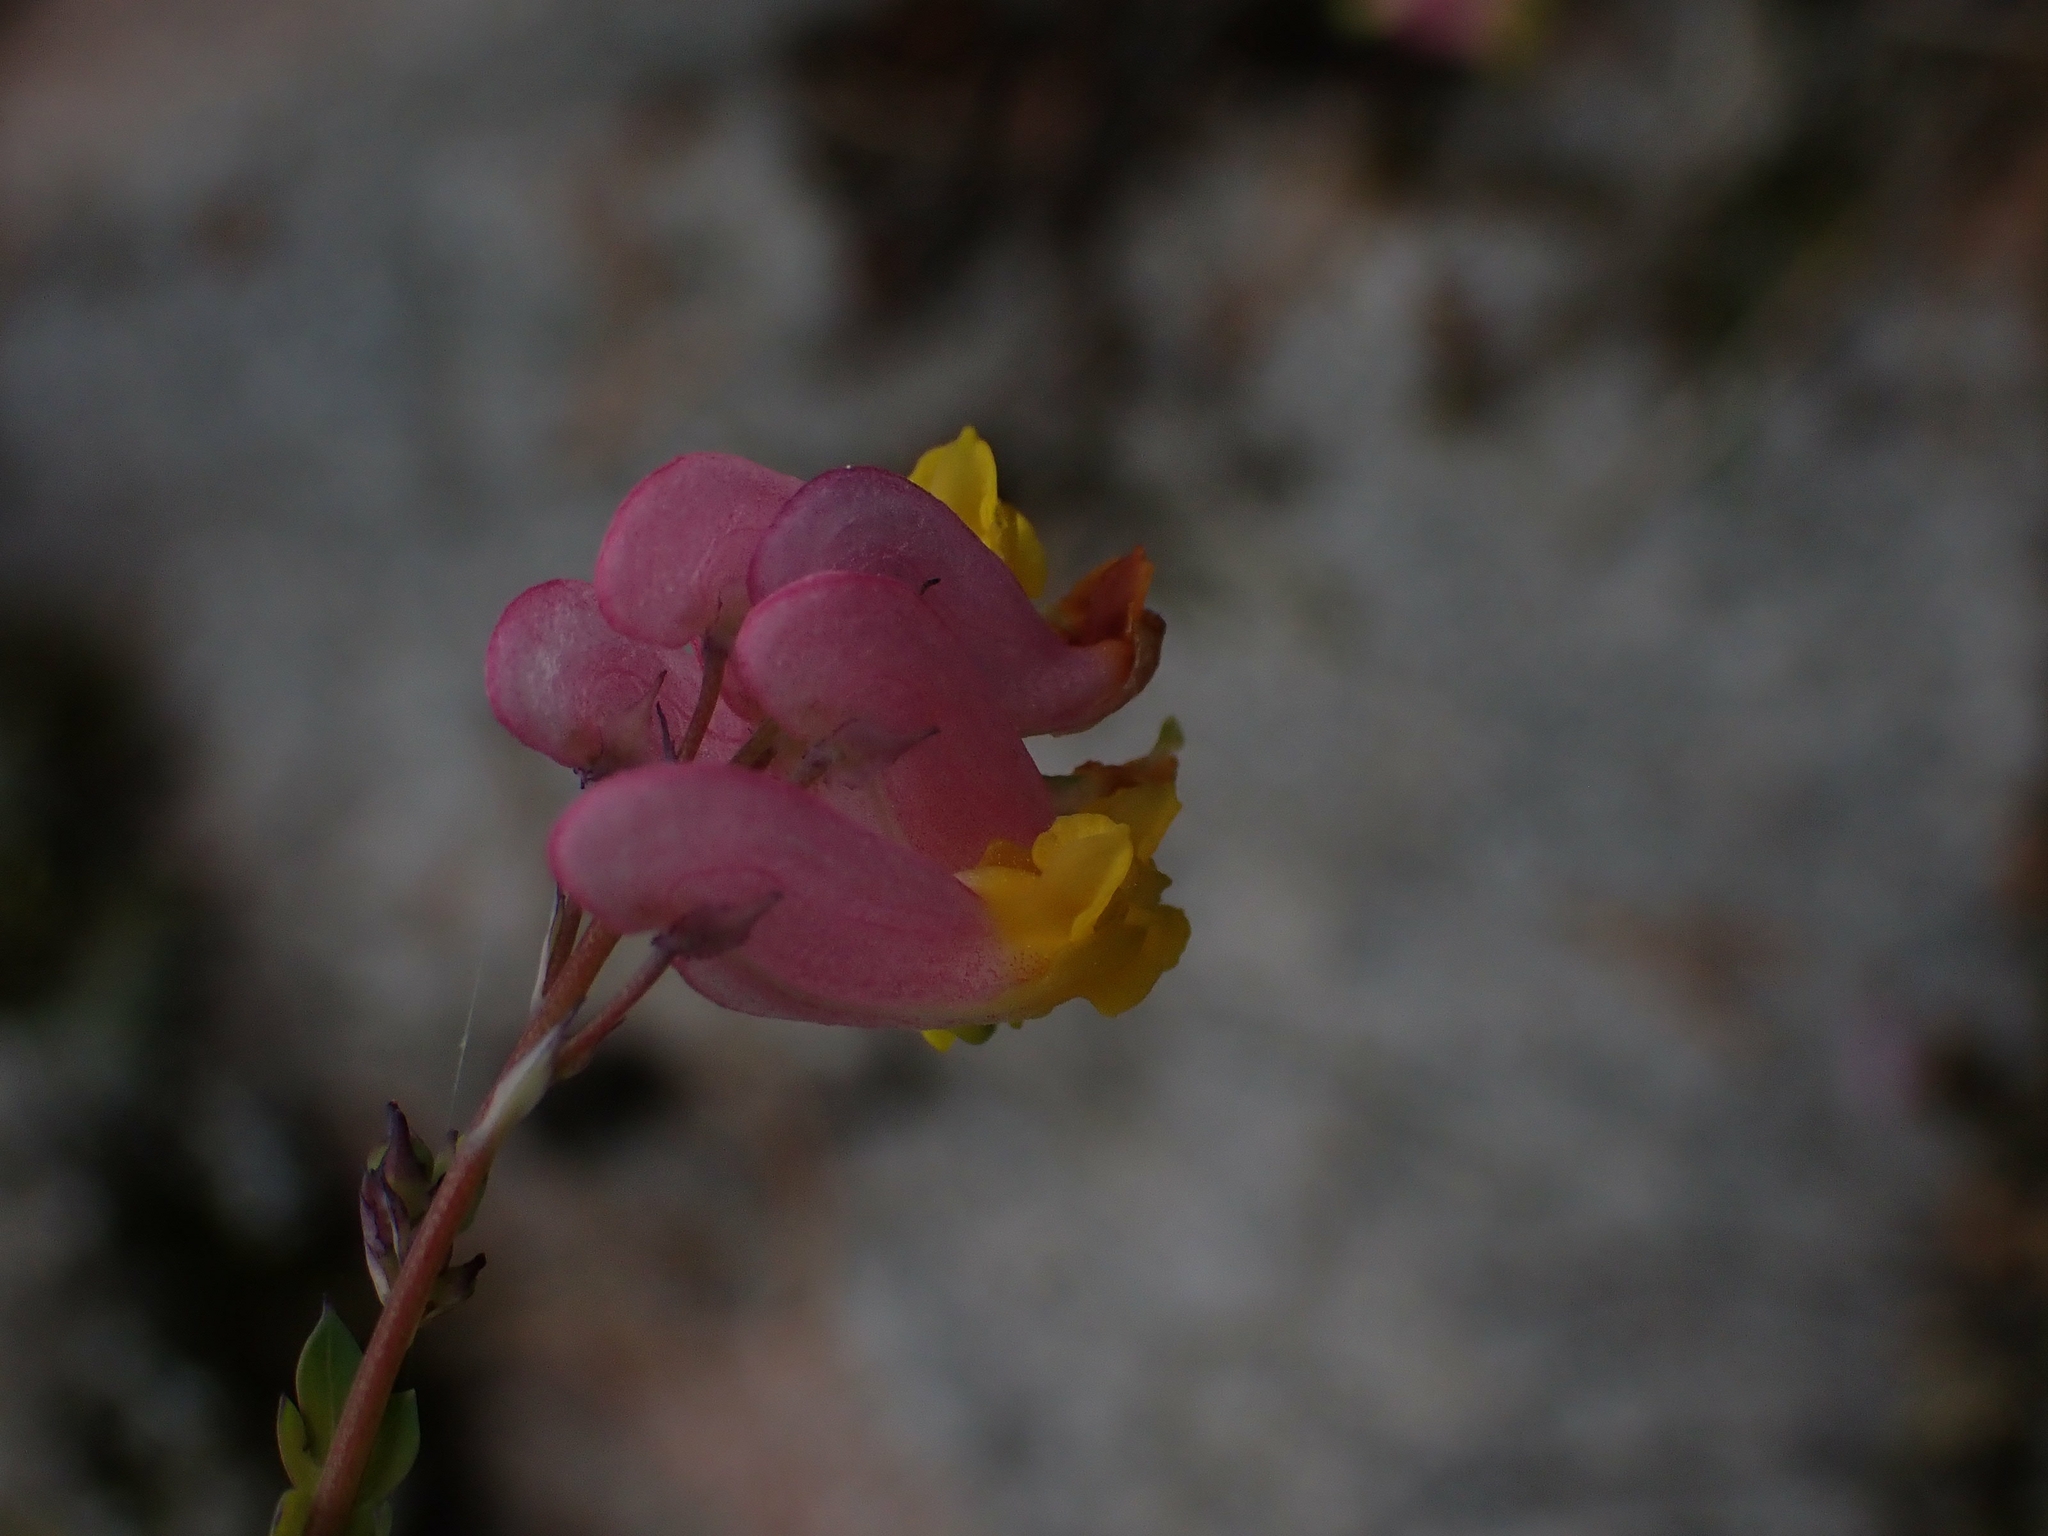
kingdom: Plantae
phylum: Tracheophyta
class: Magnoliopsida
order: Ranunculales
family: Papaveraceae
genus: Capnoides
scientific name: Capnoides sempervirens
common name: Rock harlequin
